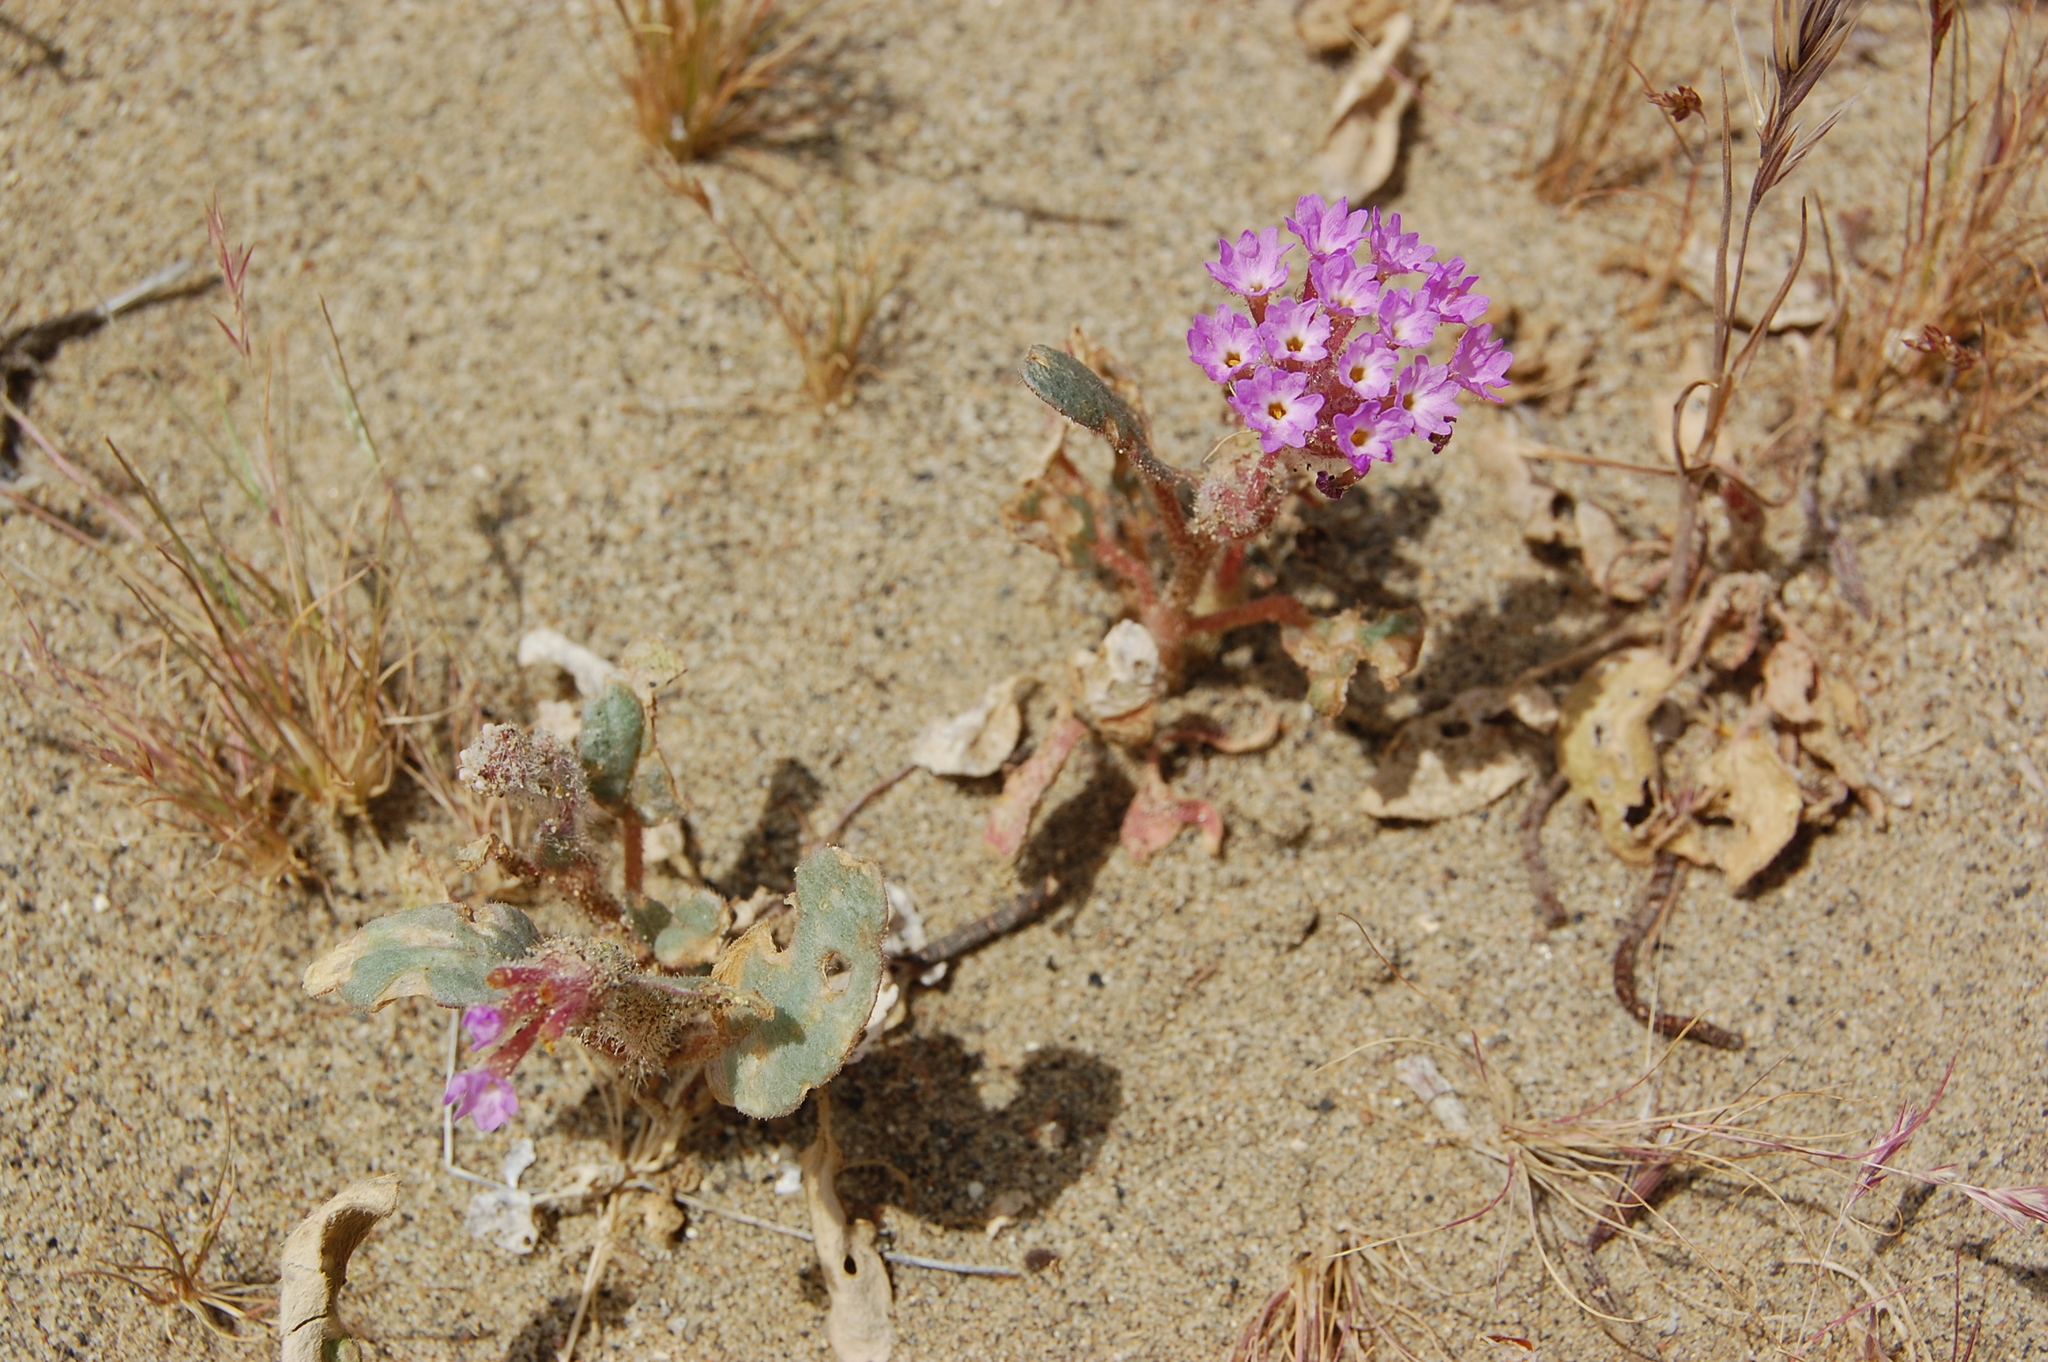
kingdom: Plantae
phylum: Tracheophyta
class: Magnoliopsida
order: Caryophyllales
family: Nyctaginaceae
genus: Abronia
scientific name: Abronia pogonantha
